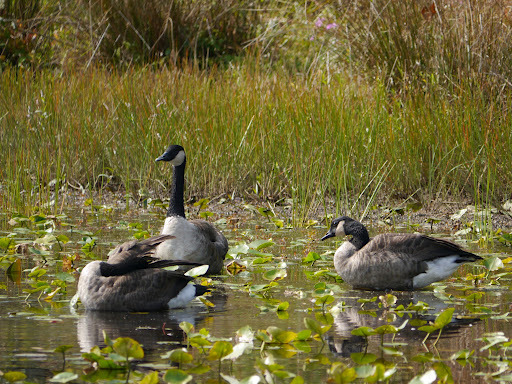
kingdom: Animalia
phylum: Chordata
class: Aves
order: Anseriformes
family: Anatidae
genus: Branta
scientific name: Branta canadensis
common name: Canada goose
